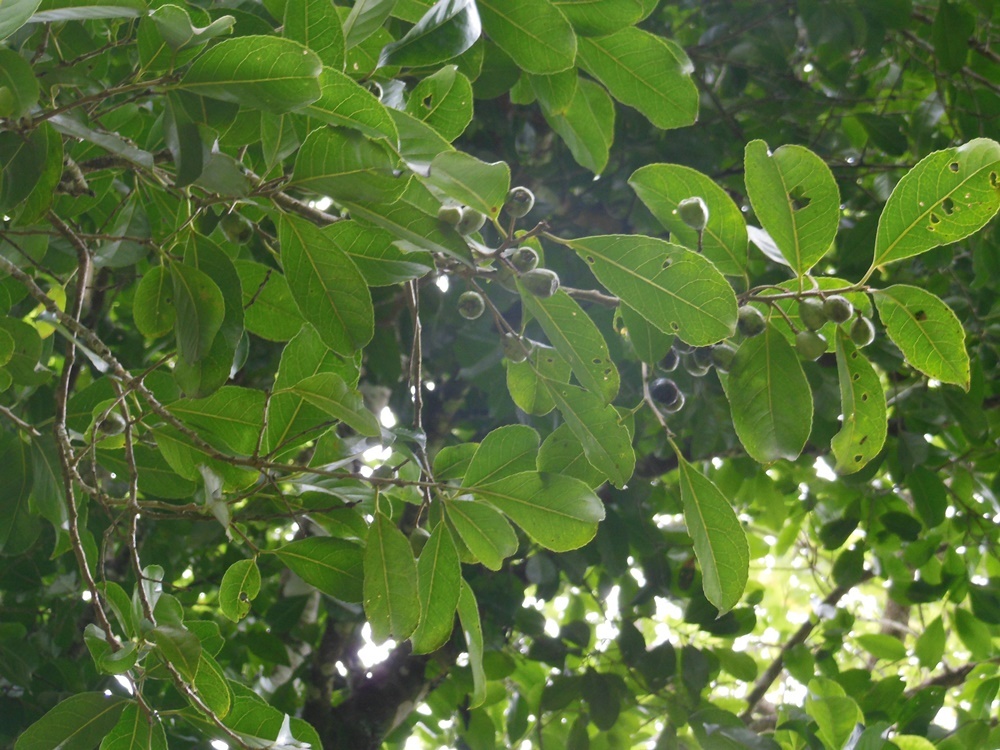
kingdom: Plantae
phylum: Tracheophyta
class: Magnoliopsida
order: Ericales
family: Symplocaceae
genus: Symplocos
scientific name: Symplocos limoncillo
